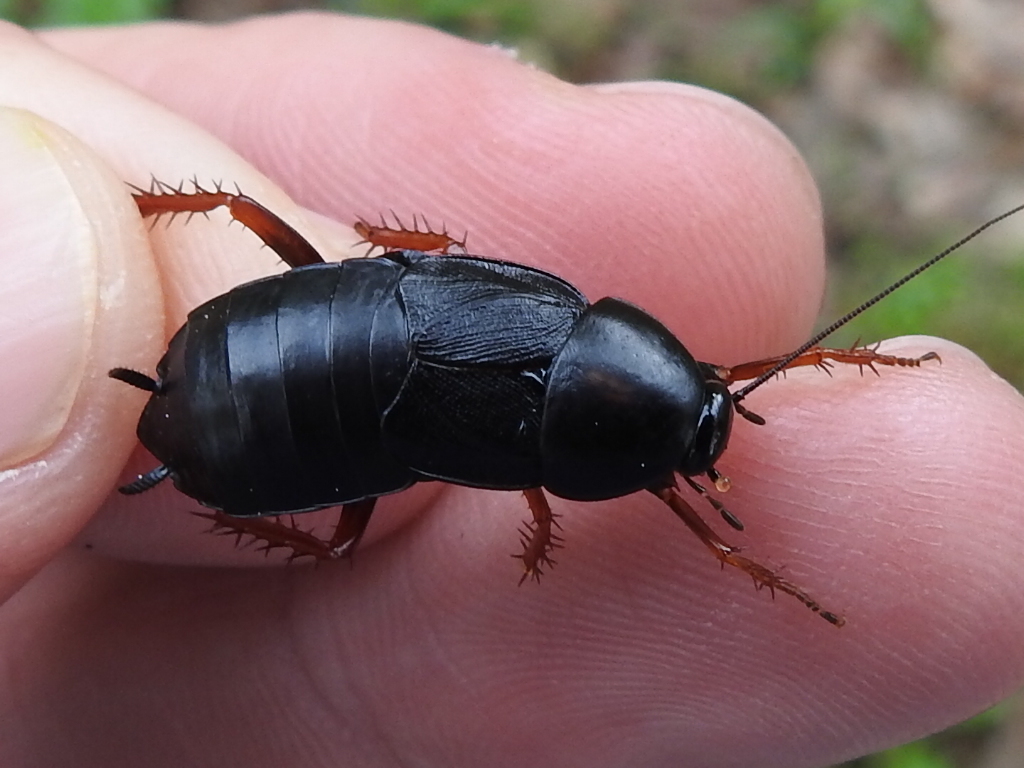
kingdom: Animalia
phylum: Arthropoda
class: Insecta
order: Blattodea
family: Ectobiidae
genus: Ischnoptera
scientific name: Ischnoptera deropeltiformis
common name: Dark wood cockroach
